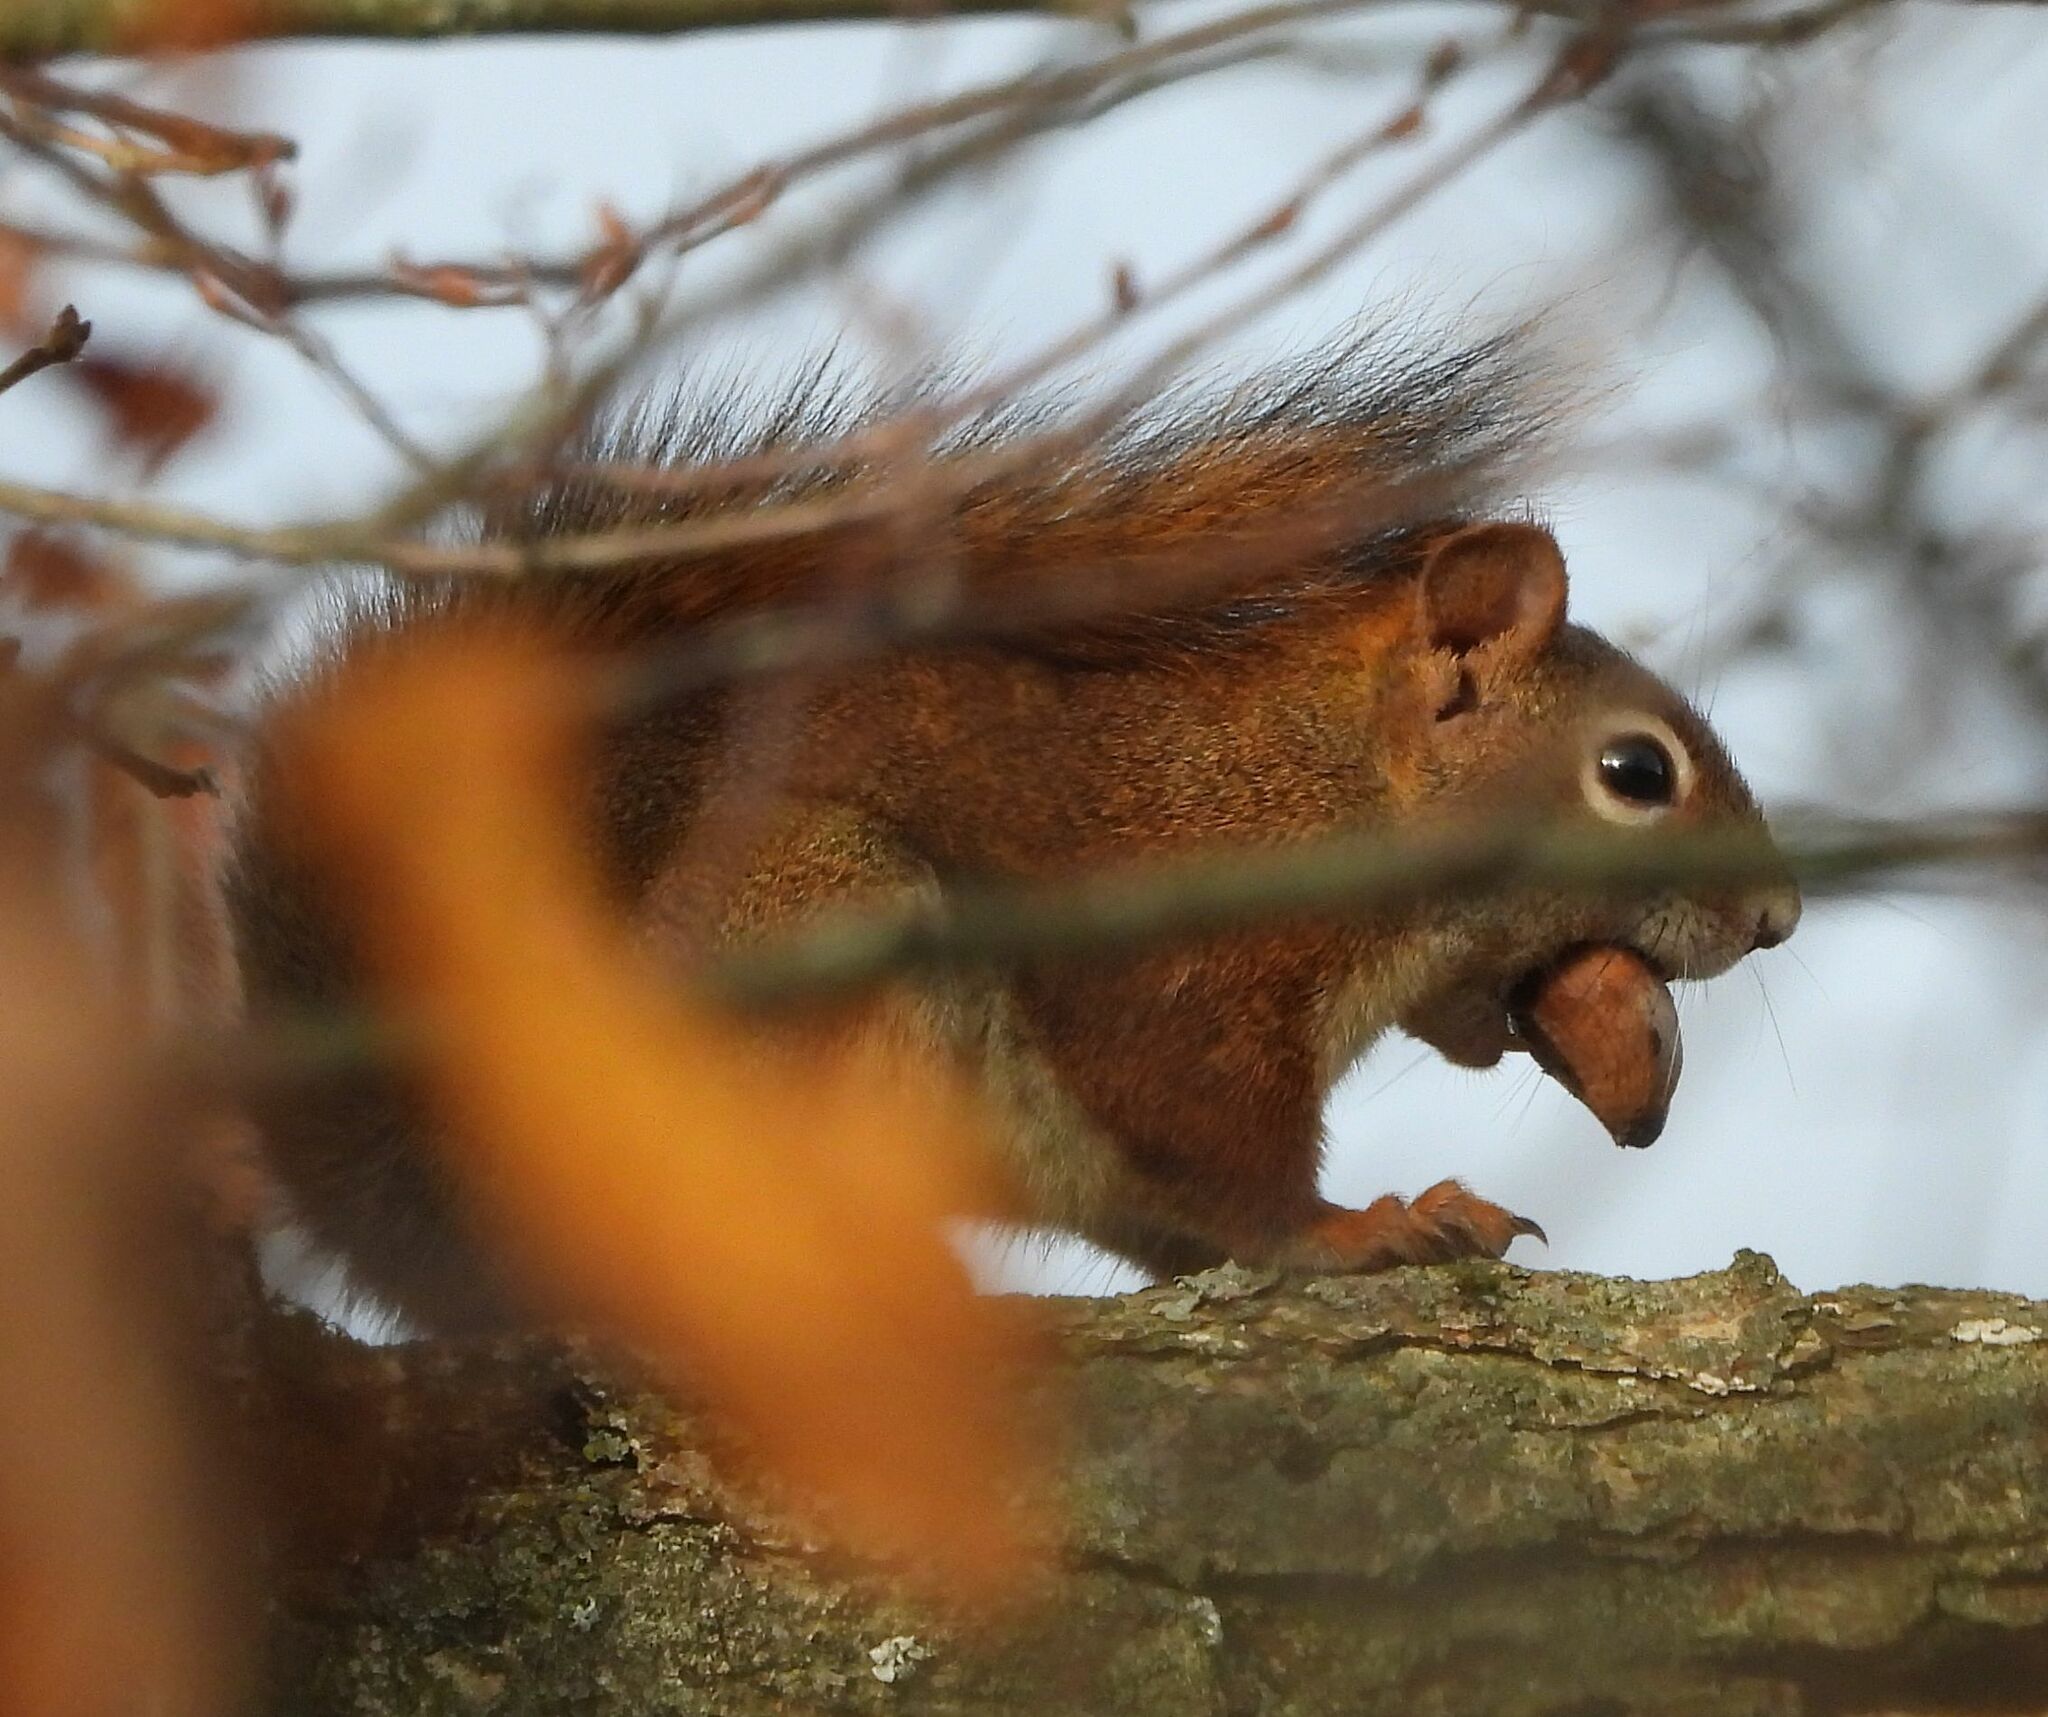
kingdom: Animalia
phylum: Chordata
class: Mammalia
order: Rodentia
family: Sciuridae
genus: Tamiasciurus
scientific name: Tamiasciurus hudsonicus
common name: Red squirrel
